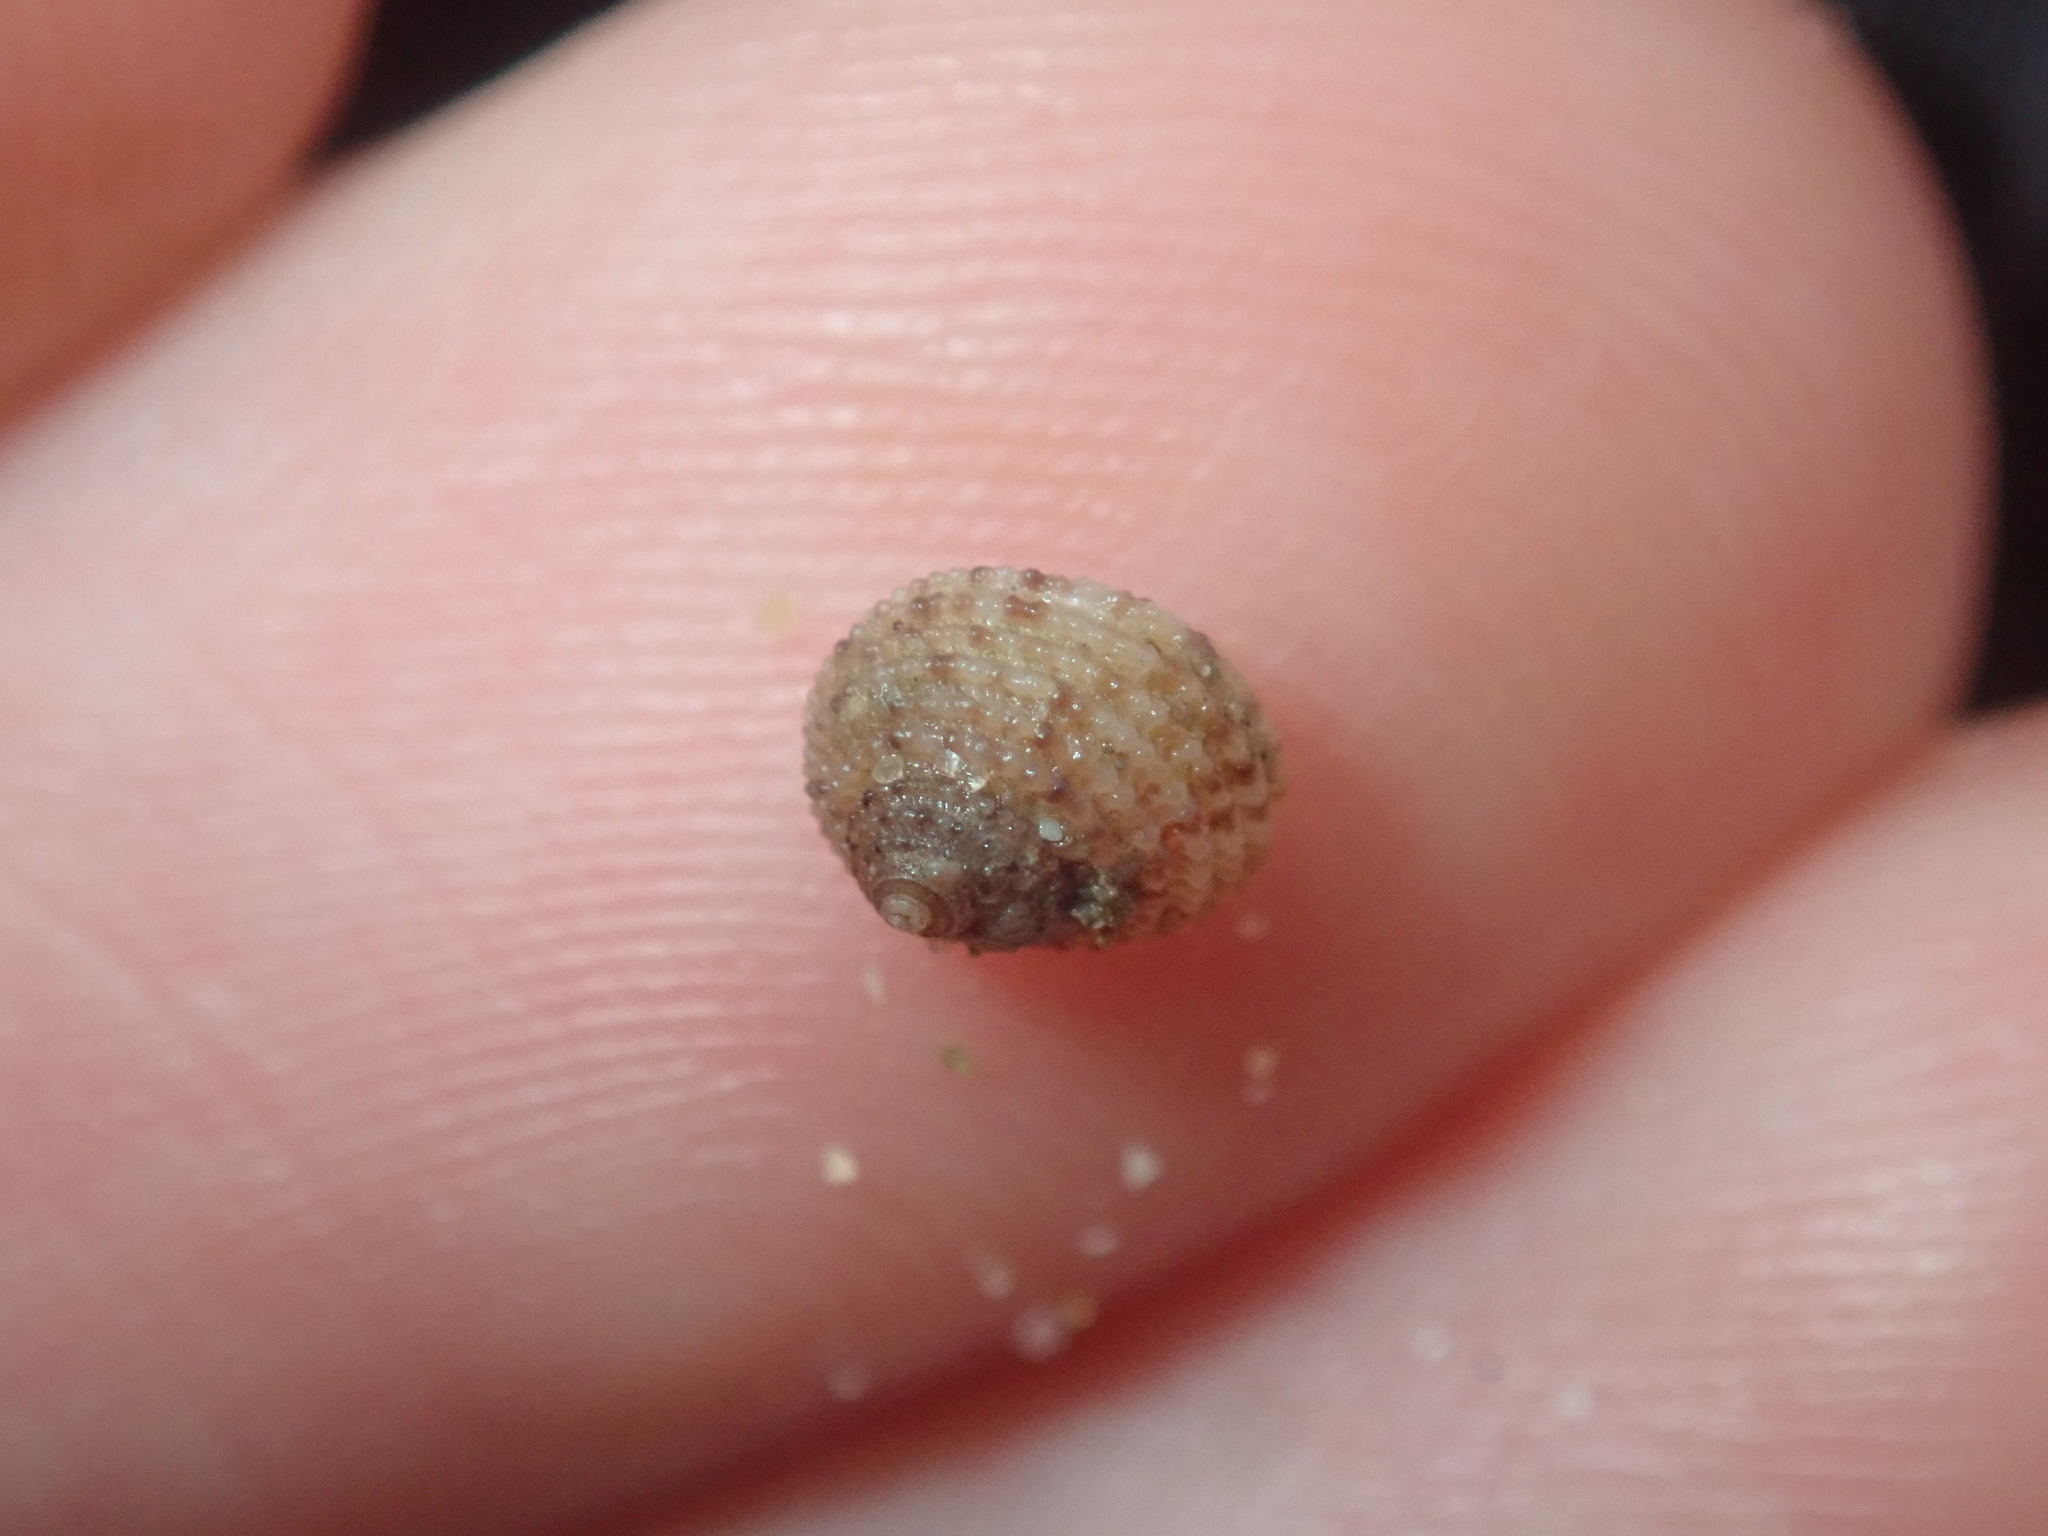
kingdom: Animalia
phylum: Mollusca
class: Gastropoda
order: Seguenziida
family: Chilodontaidae
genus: Herpetopoma
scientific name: Herpetopoma aspersum
